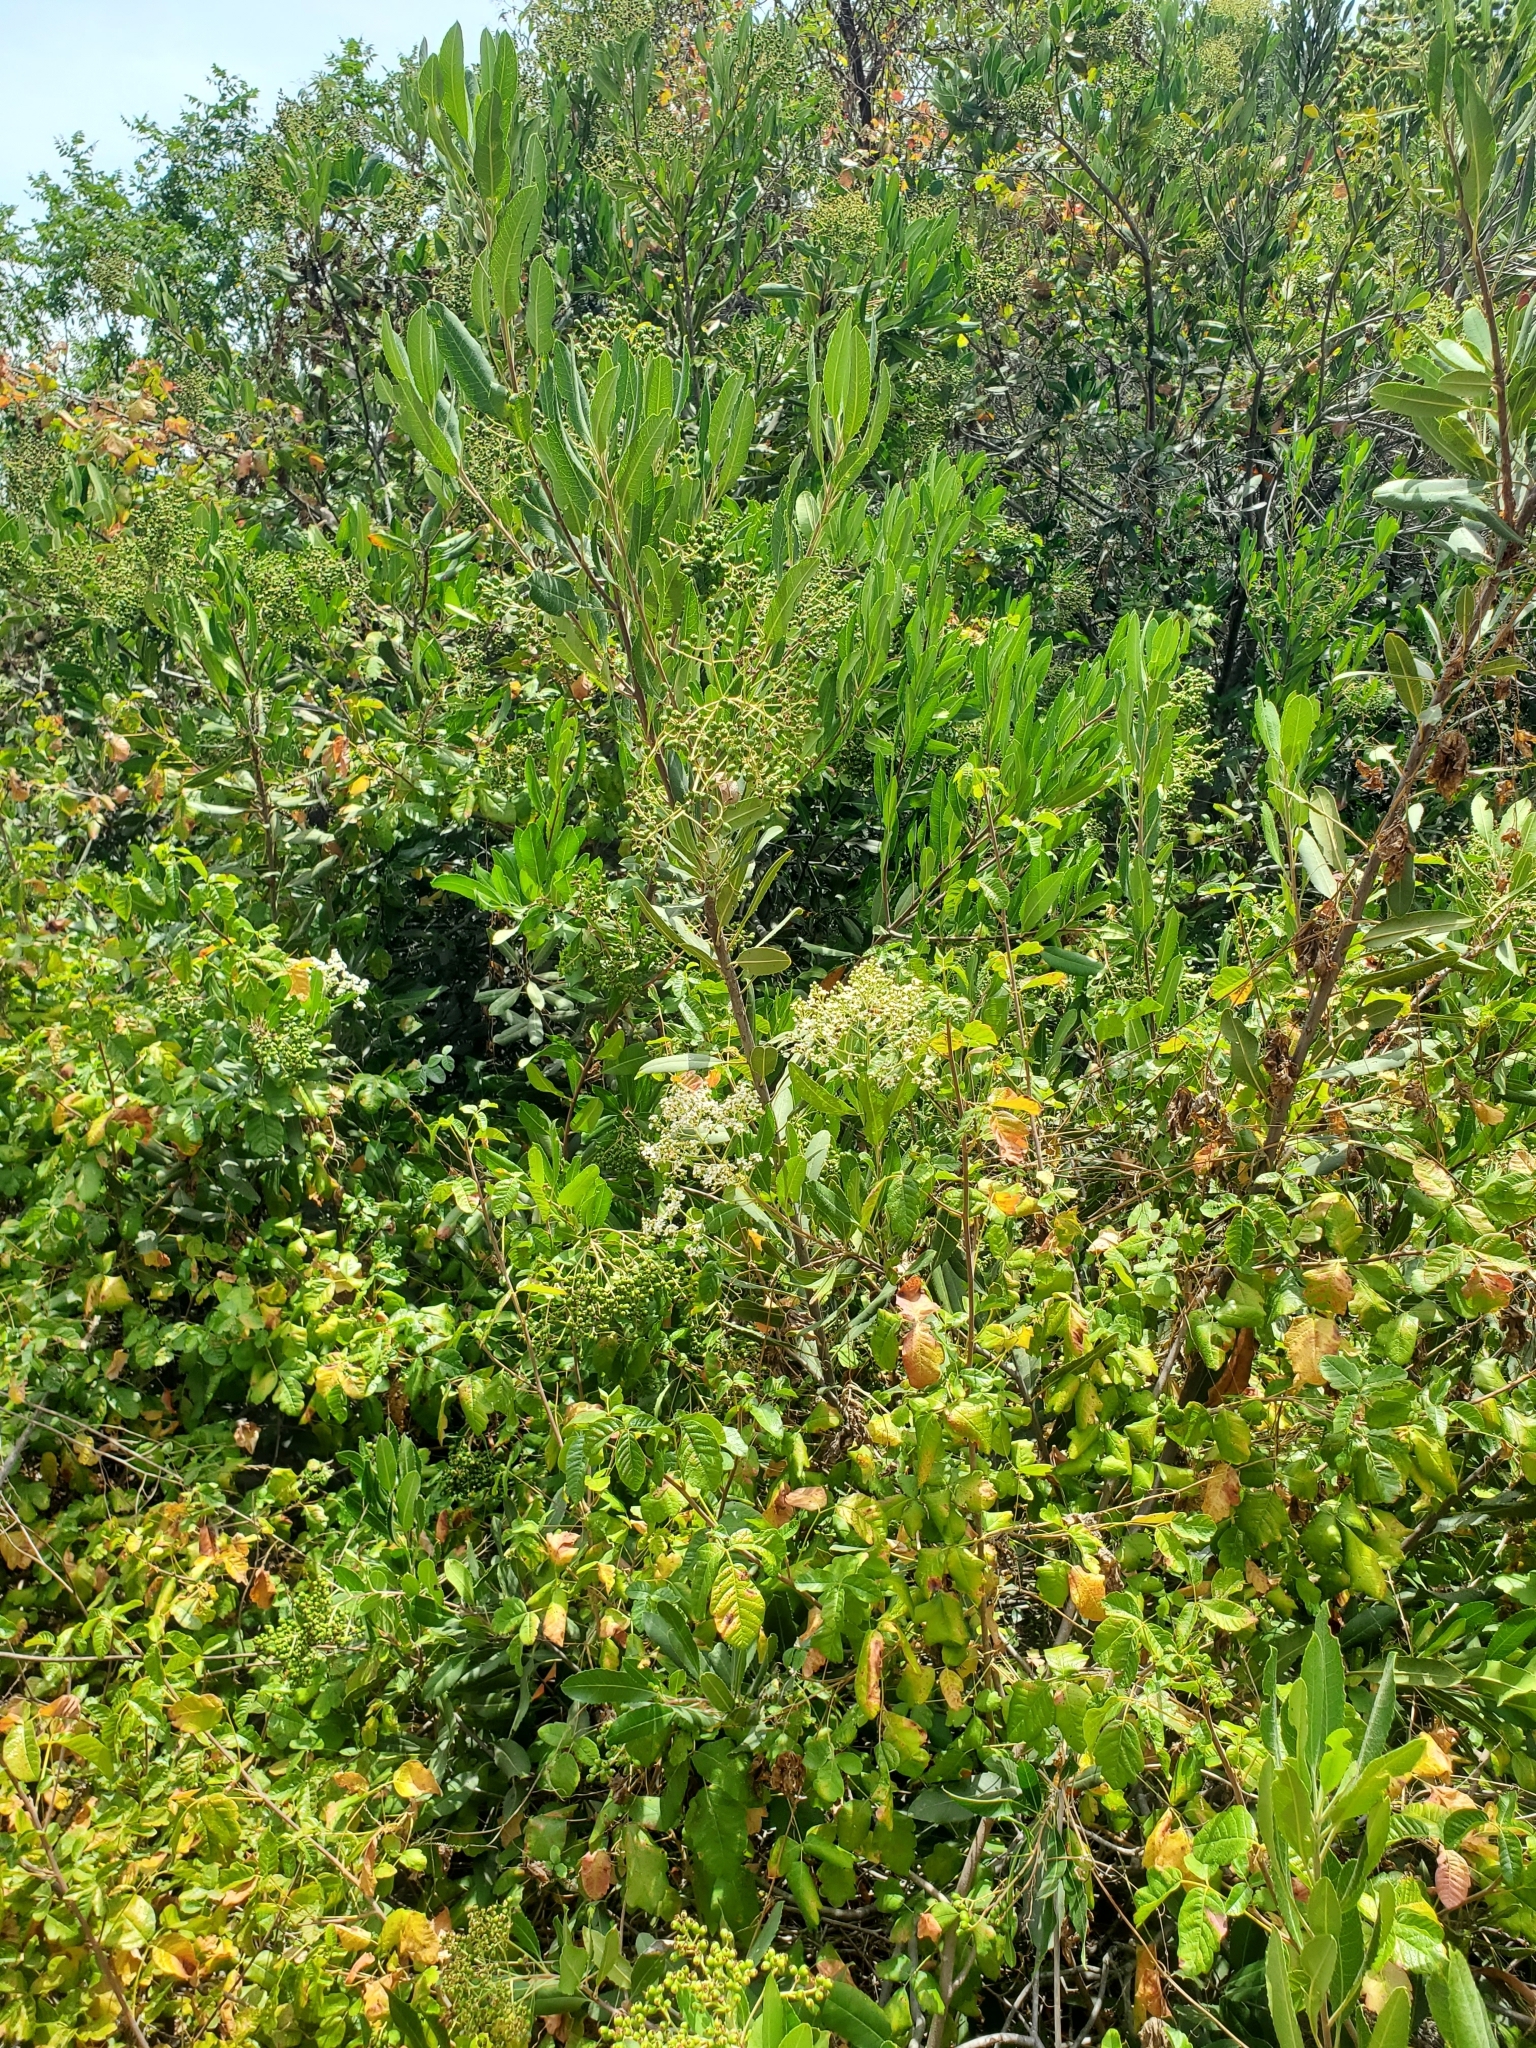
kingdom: Plantae
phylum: Tracheophyta
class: Magnoliopsida
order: Rosales
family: Rosaceae
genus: Heteromeles
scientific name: Heteromeles arbutifolia
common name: California-holly
